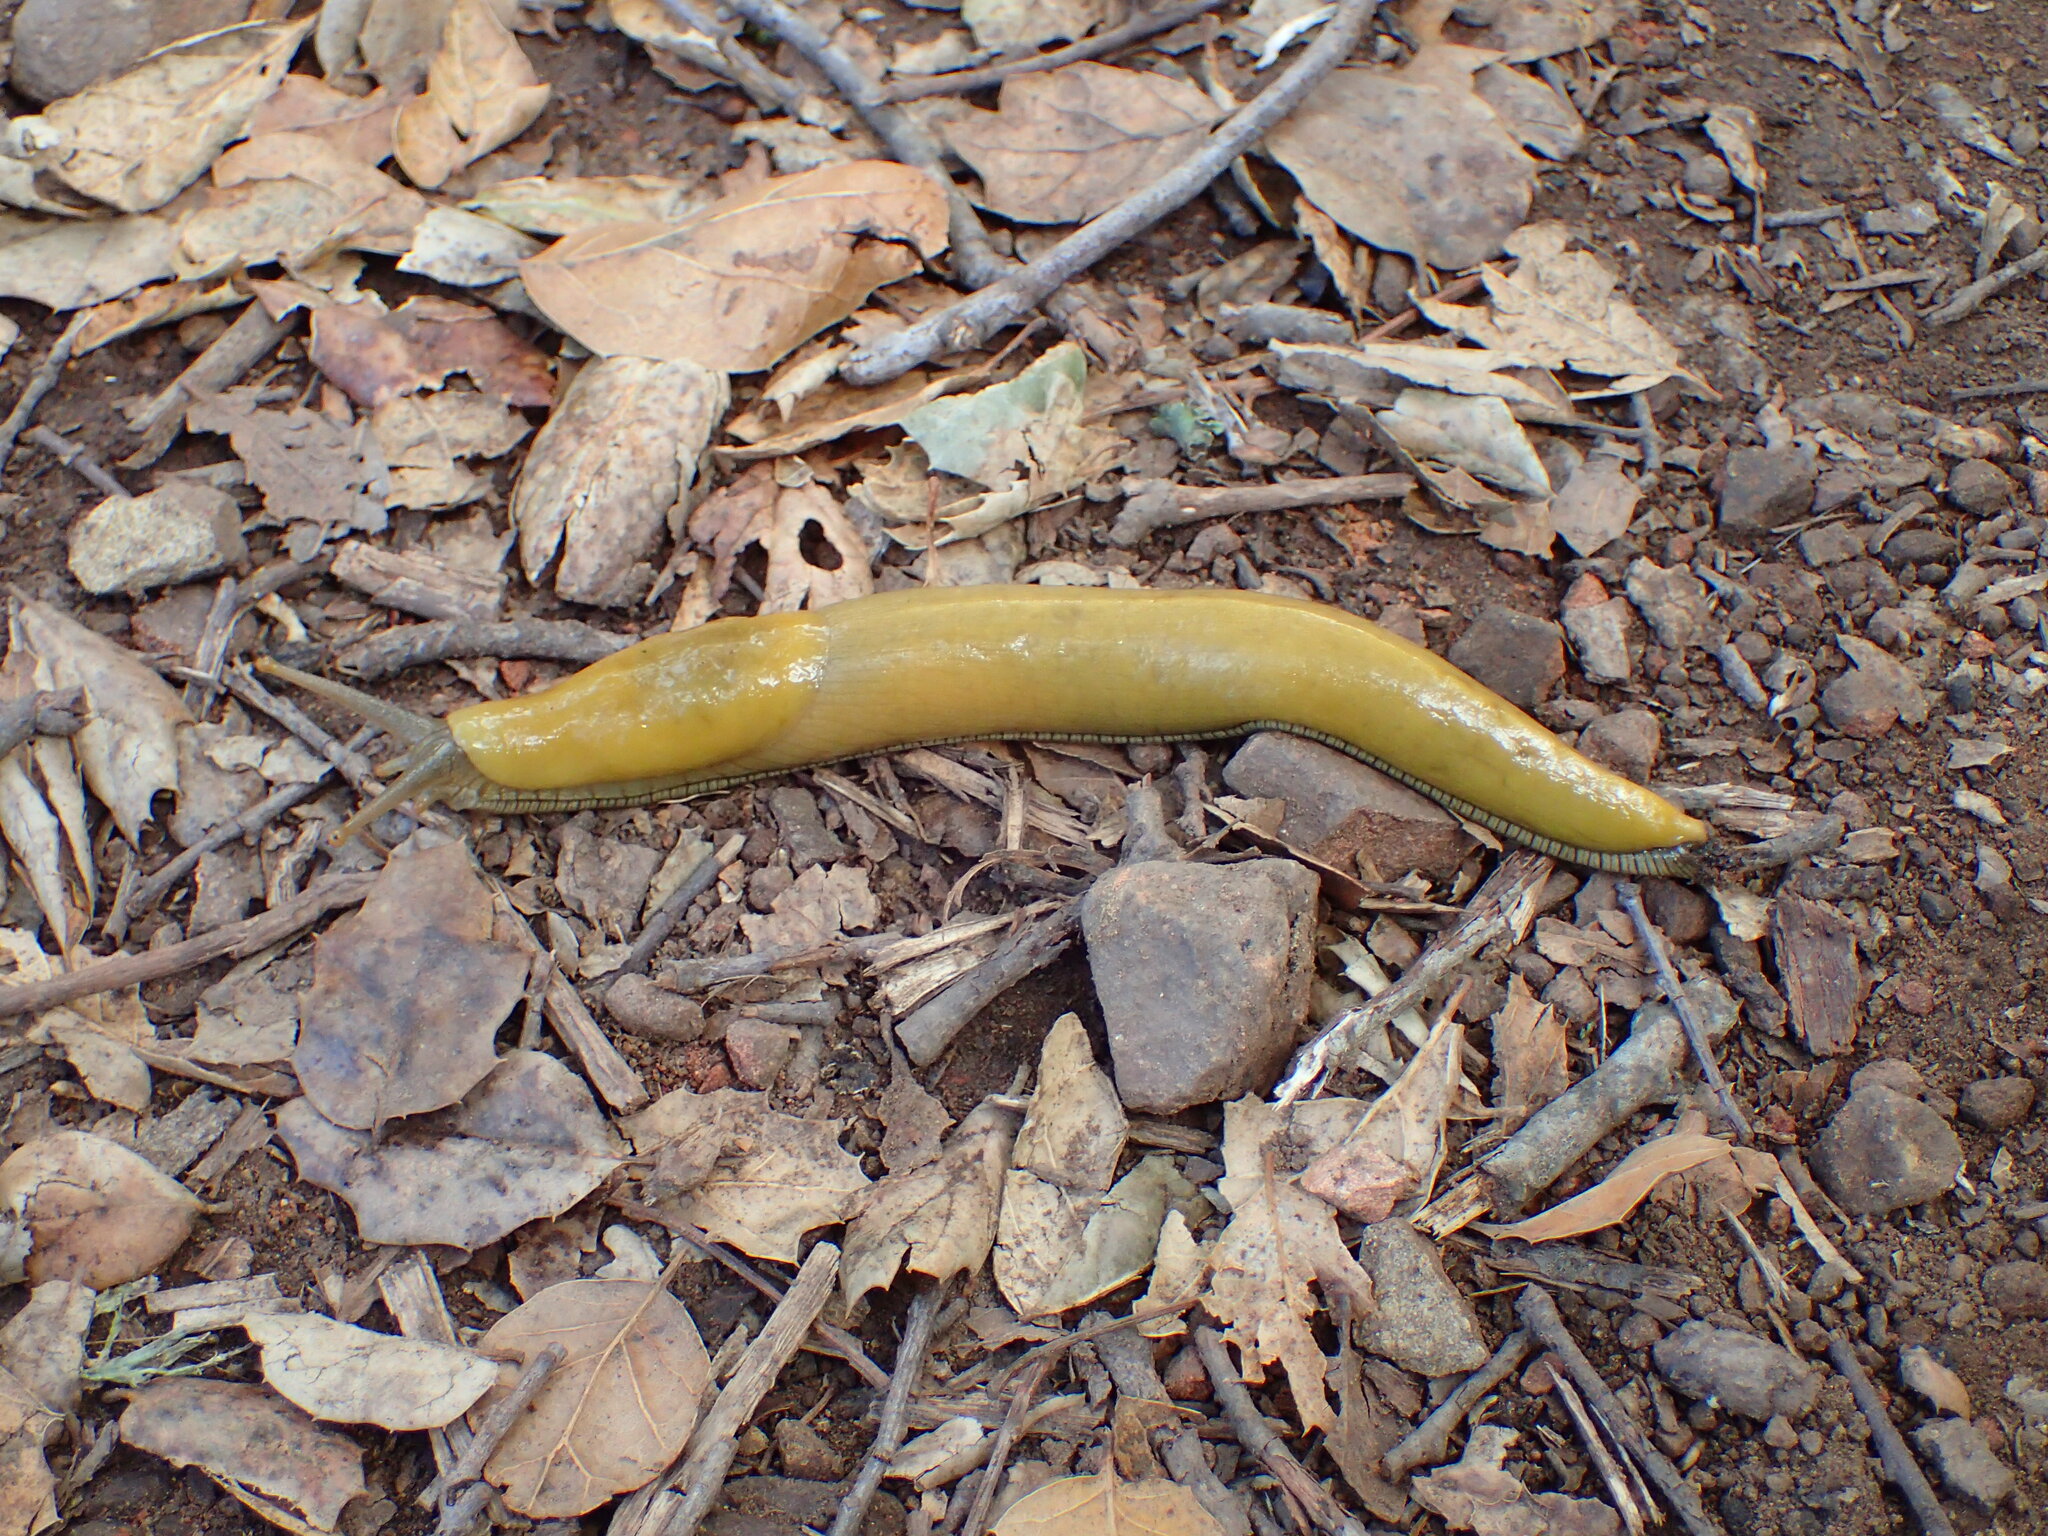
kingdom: Animalia
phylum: Mollusca
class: Gastropoda
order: Stylommatophora
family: Ariolimacidae
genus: Ariolimax
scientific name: Ariolimax stramineus
